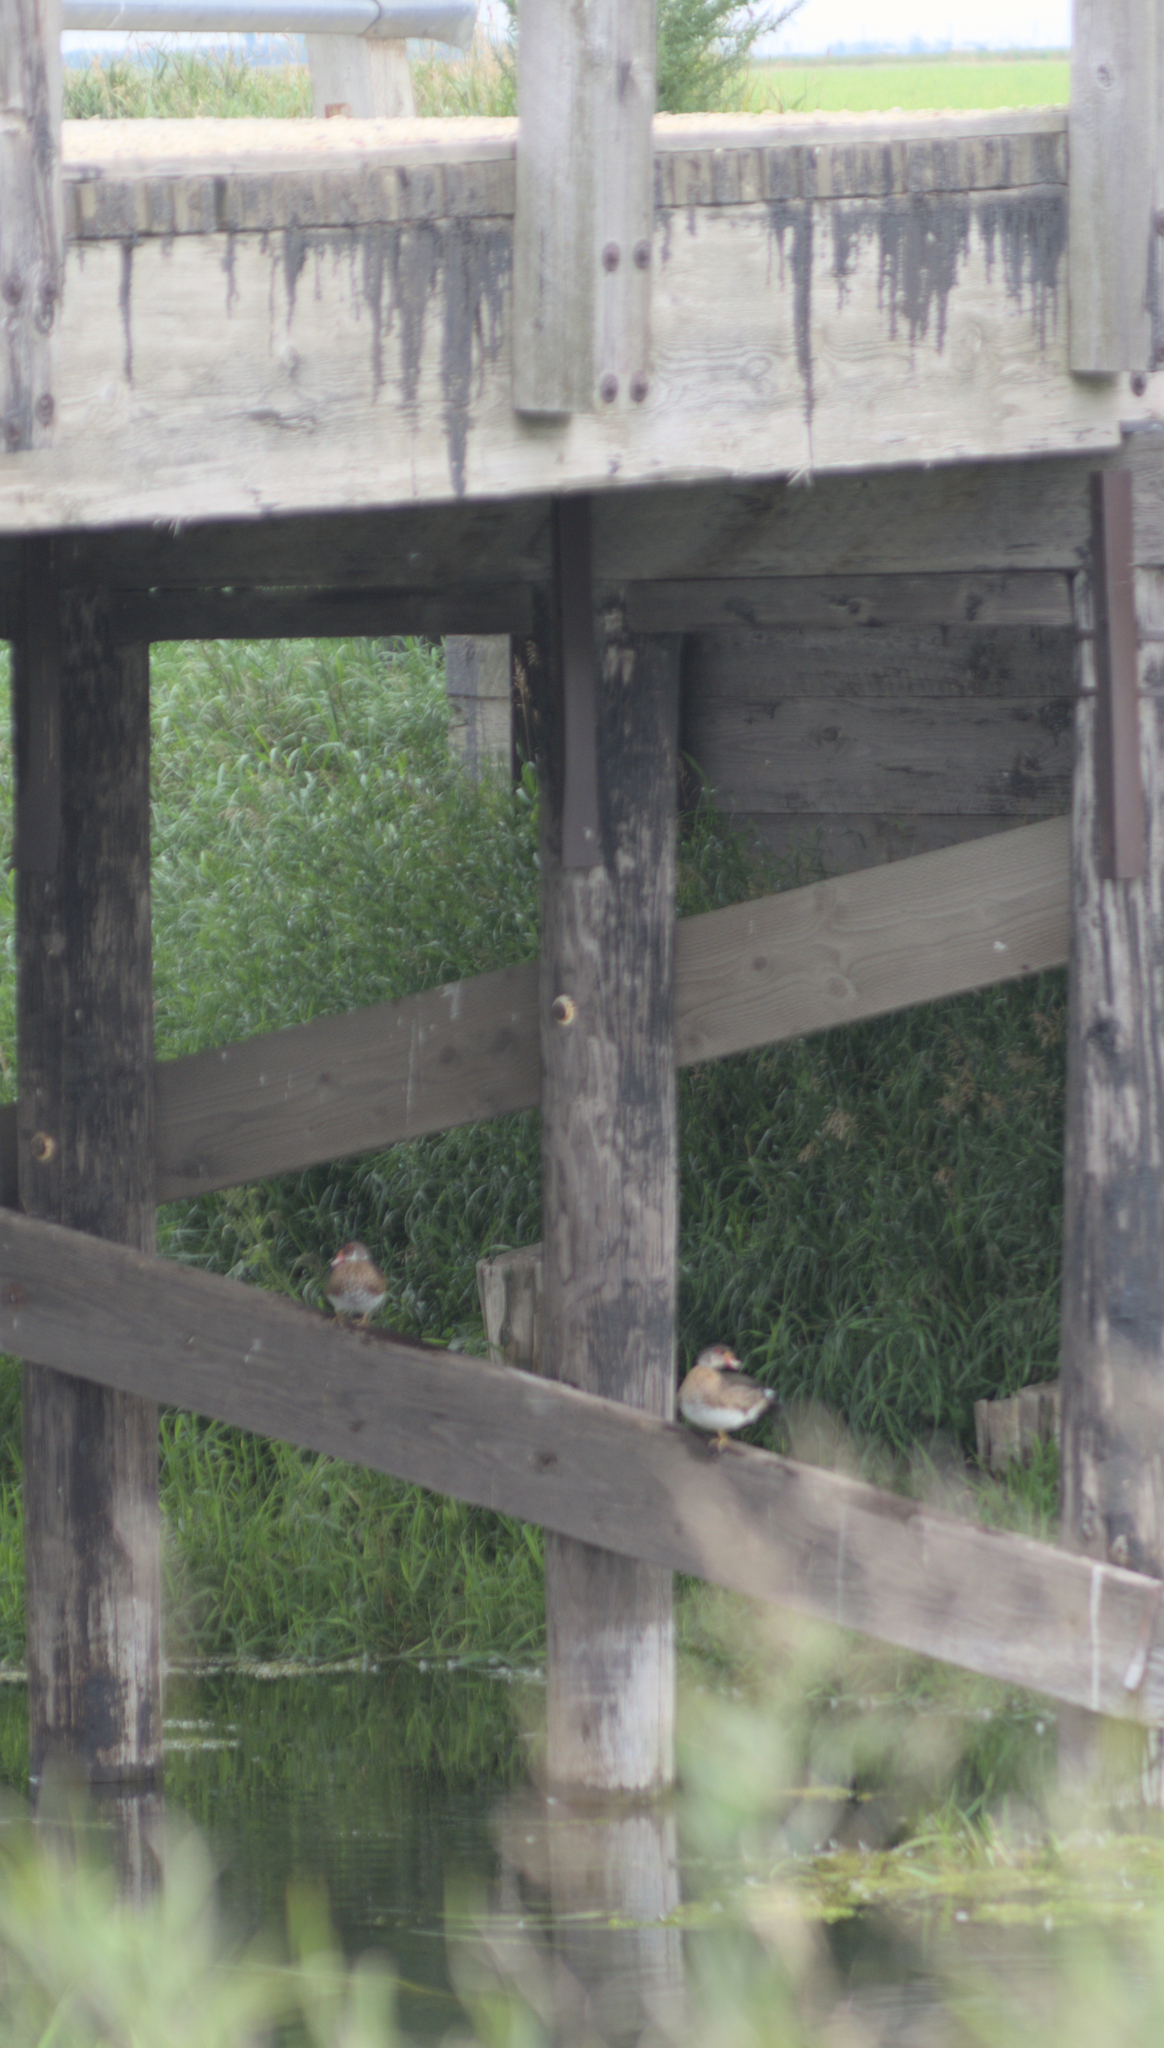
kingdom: Animalia
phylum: Chordata
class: Aves
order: Anseriformes
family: Anatidae
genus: Aix
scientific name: Aix sponsa
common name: Wood duck
